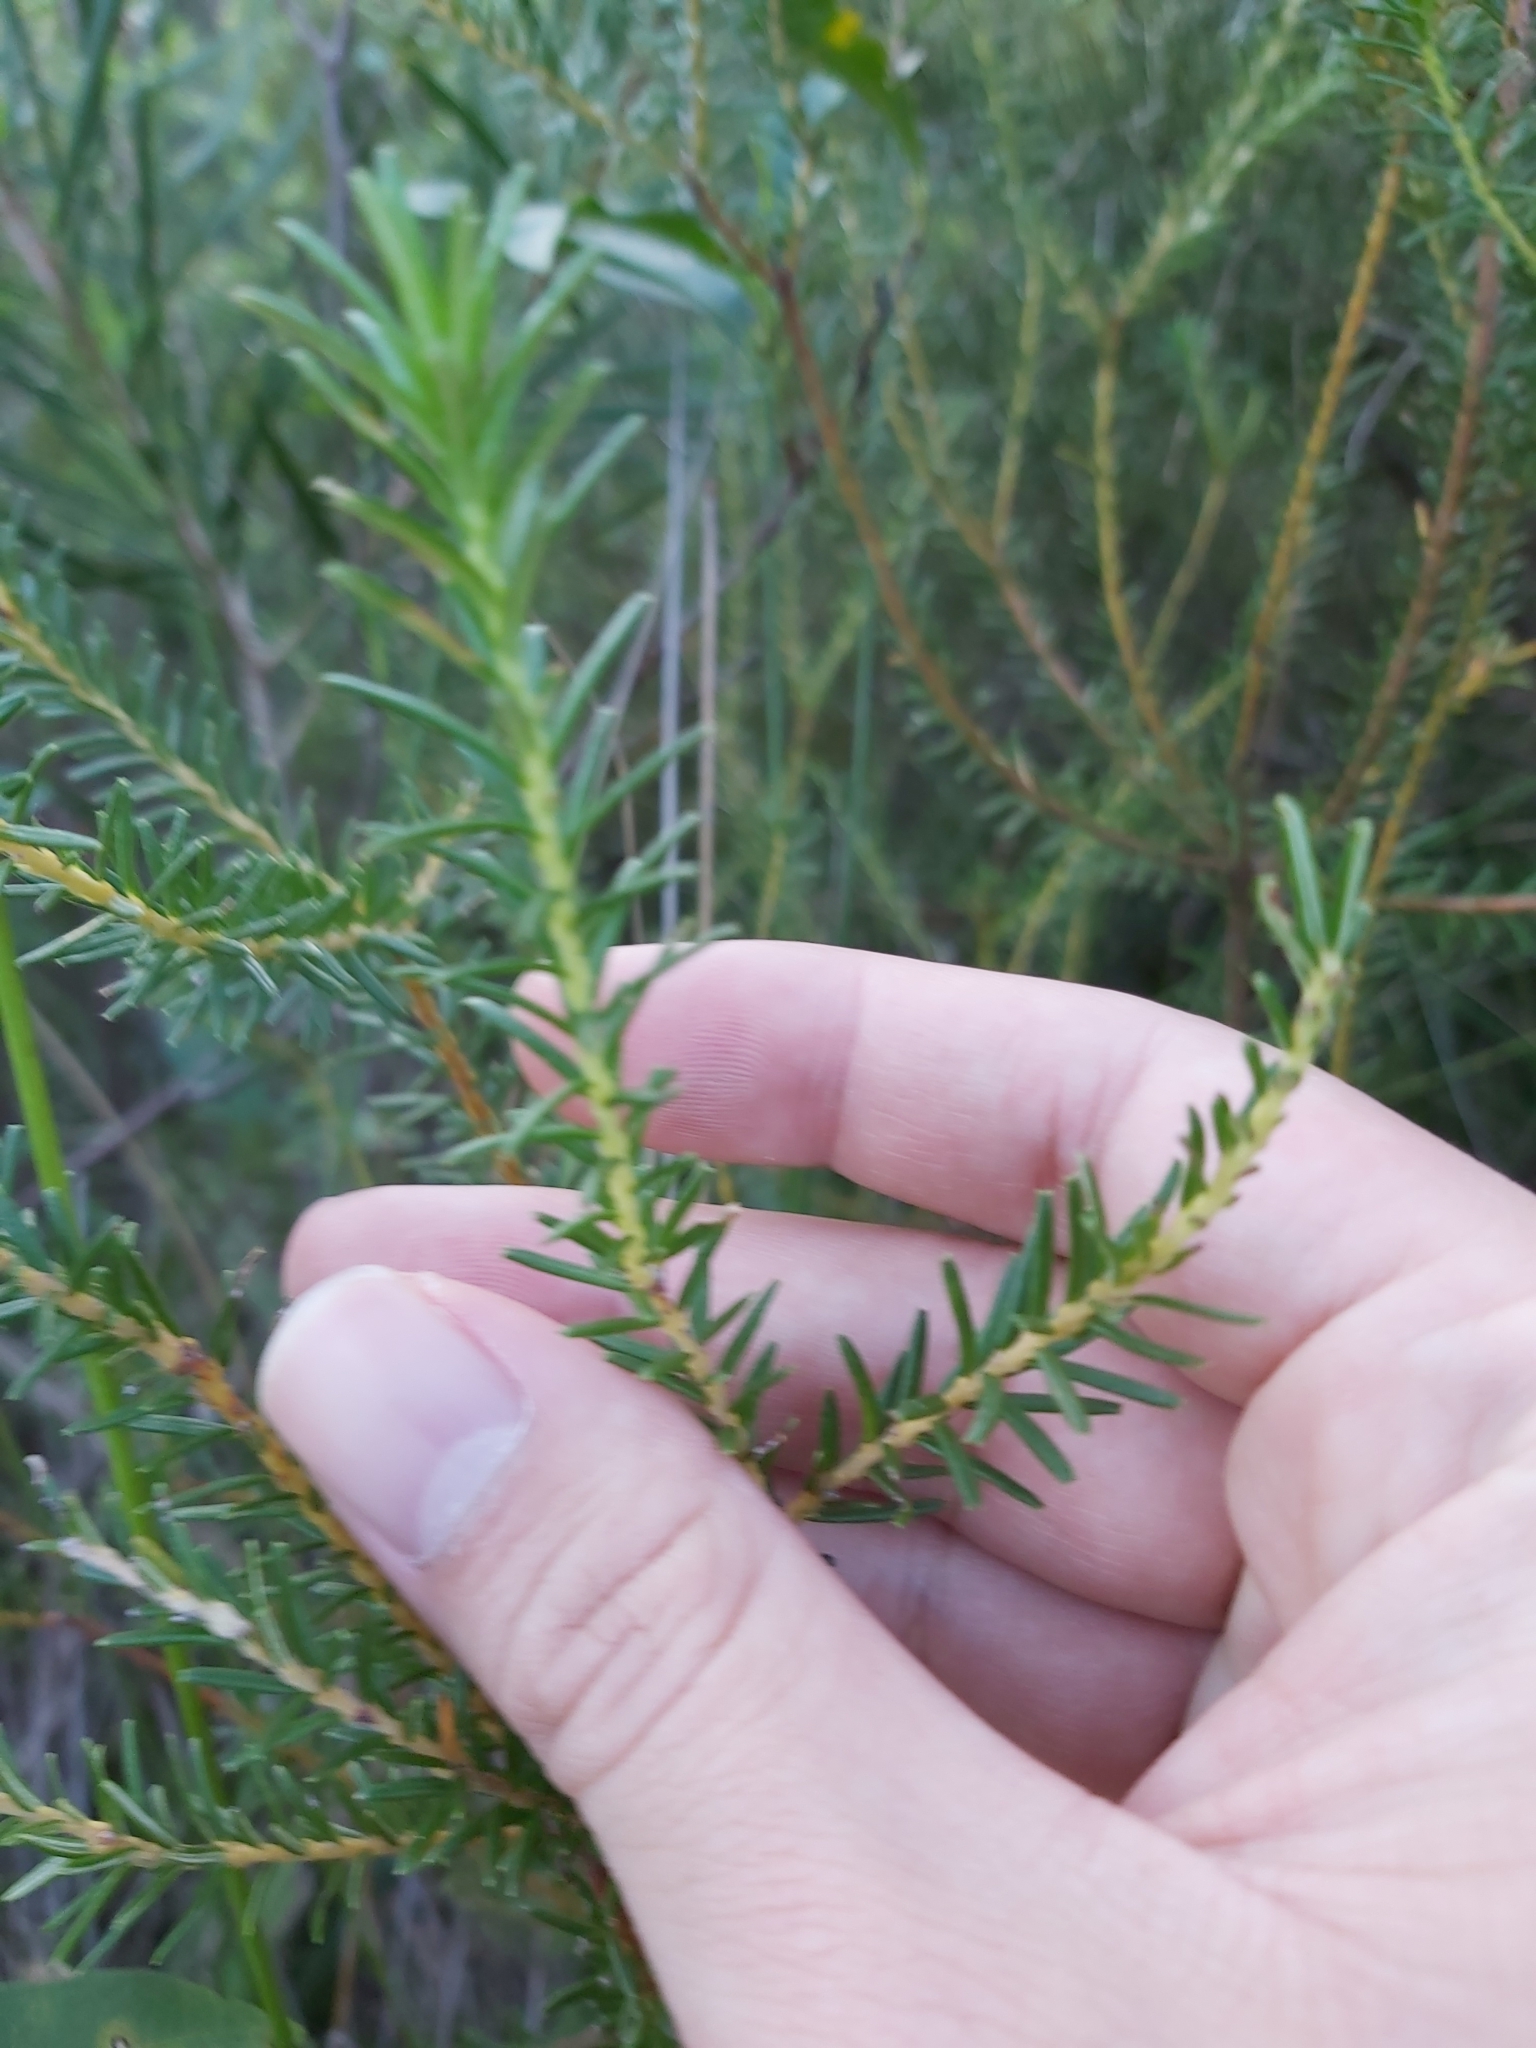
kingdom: Plantae
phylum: Tracheophyta
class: Magnoliopsida
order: Proteales
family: Proteaceae
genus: Banksia
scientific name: Banksia ericifolia
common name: Heath-leaf banksia
